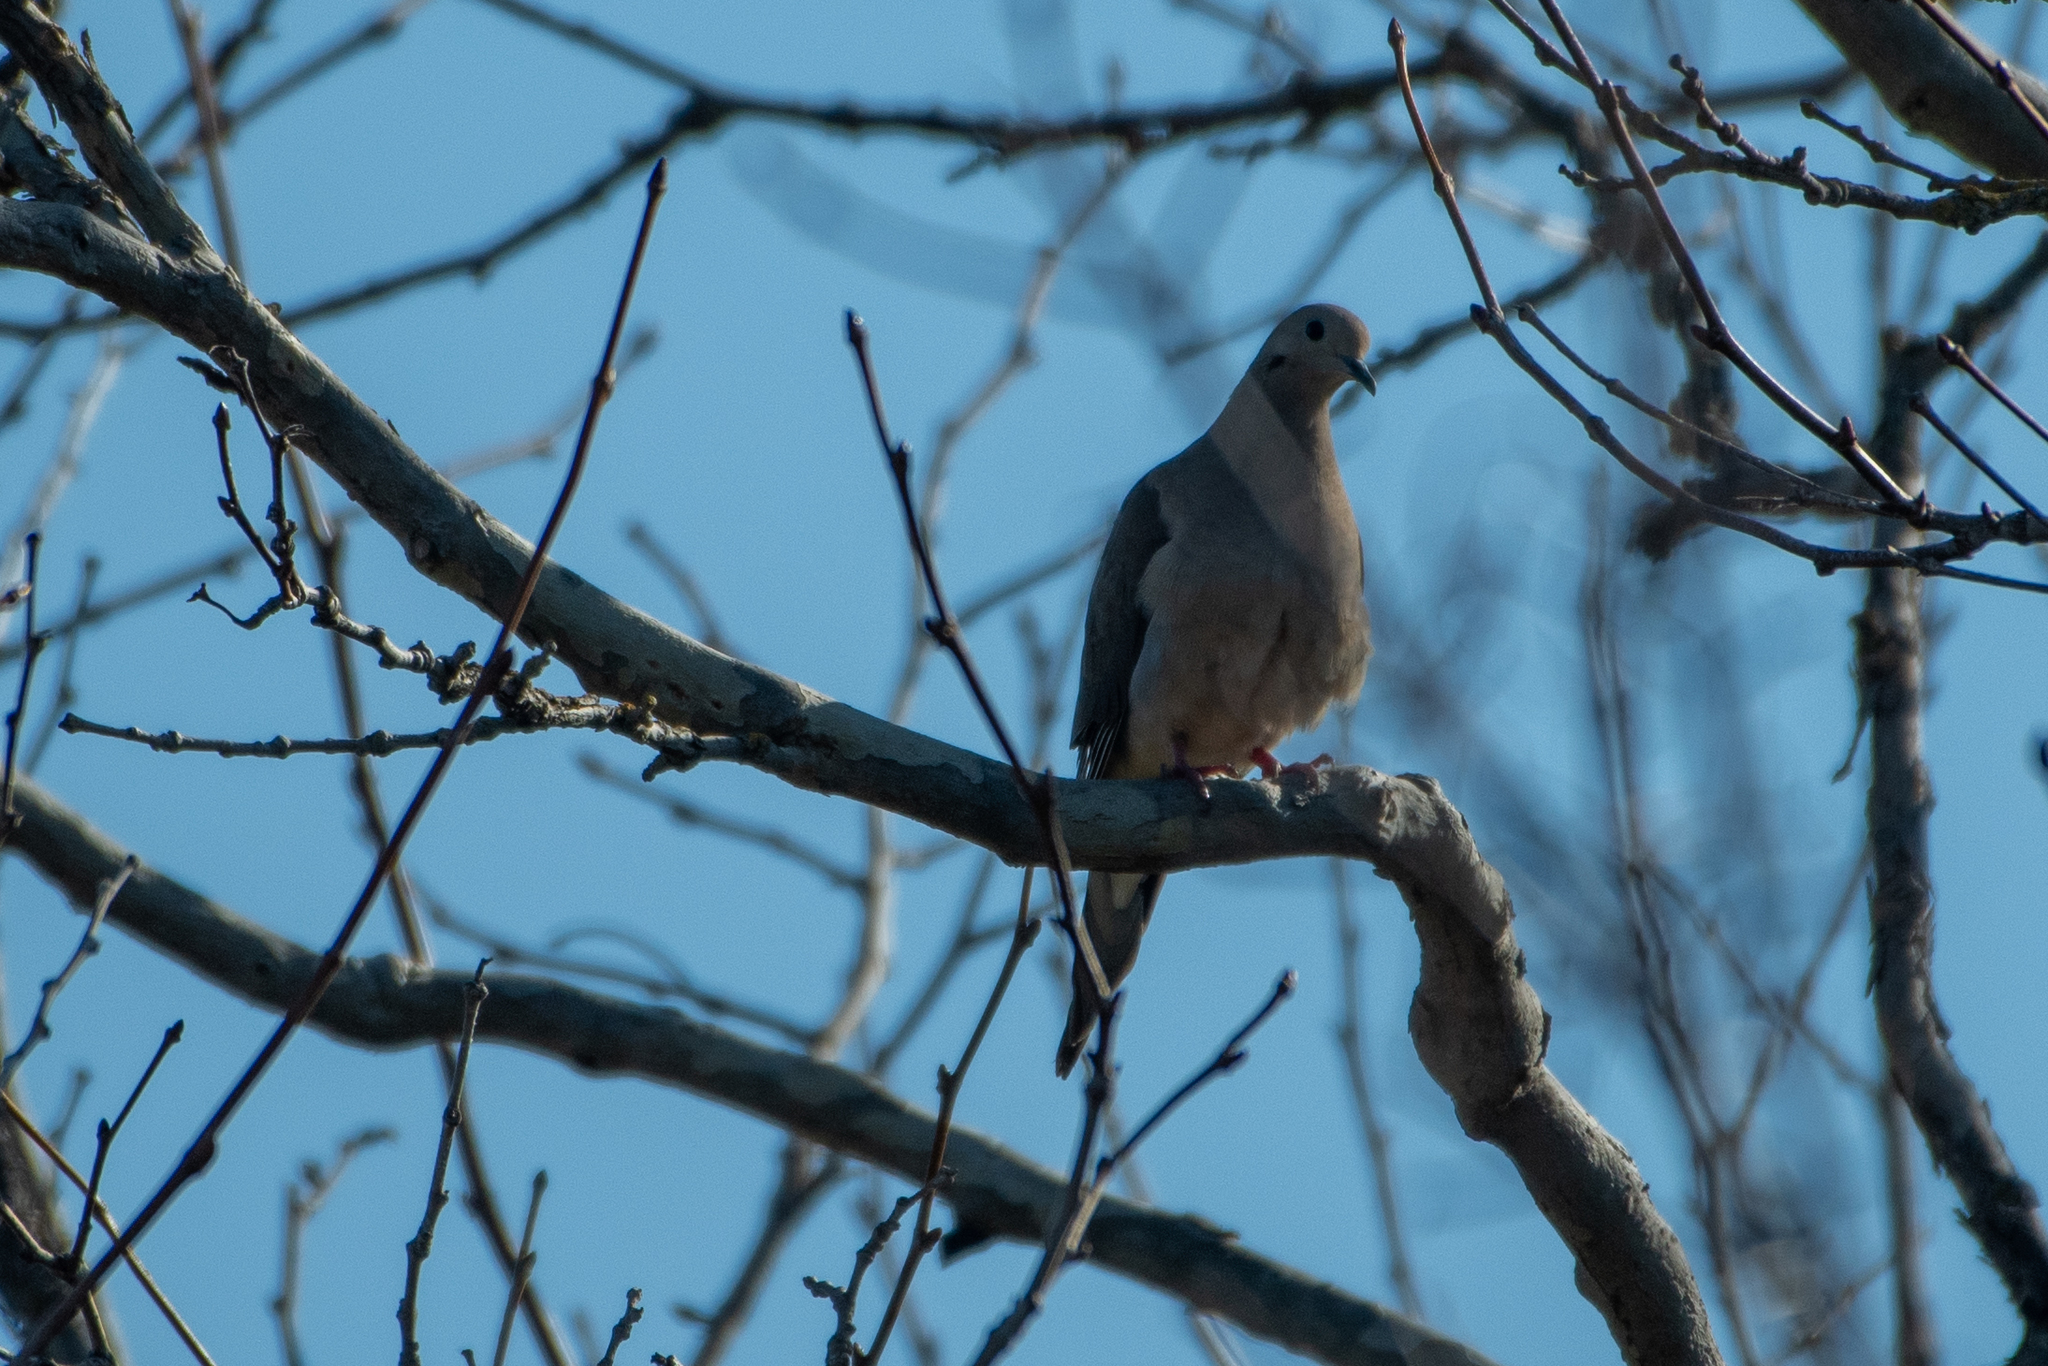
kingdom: Animalia
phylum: Chordata
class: Aves
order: Columbiformes
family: Columbidae
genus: Zenaida
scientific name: Zenaida macroura
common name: Mourning dove
